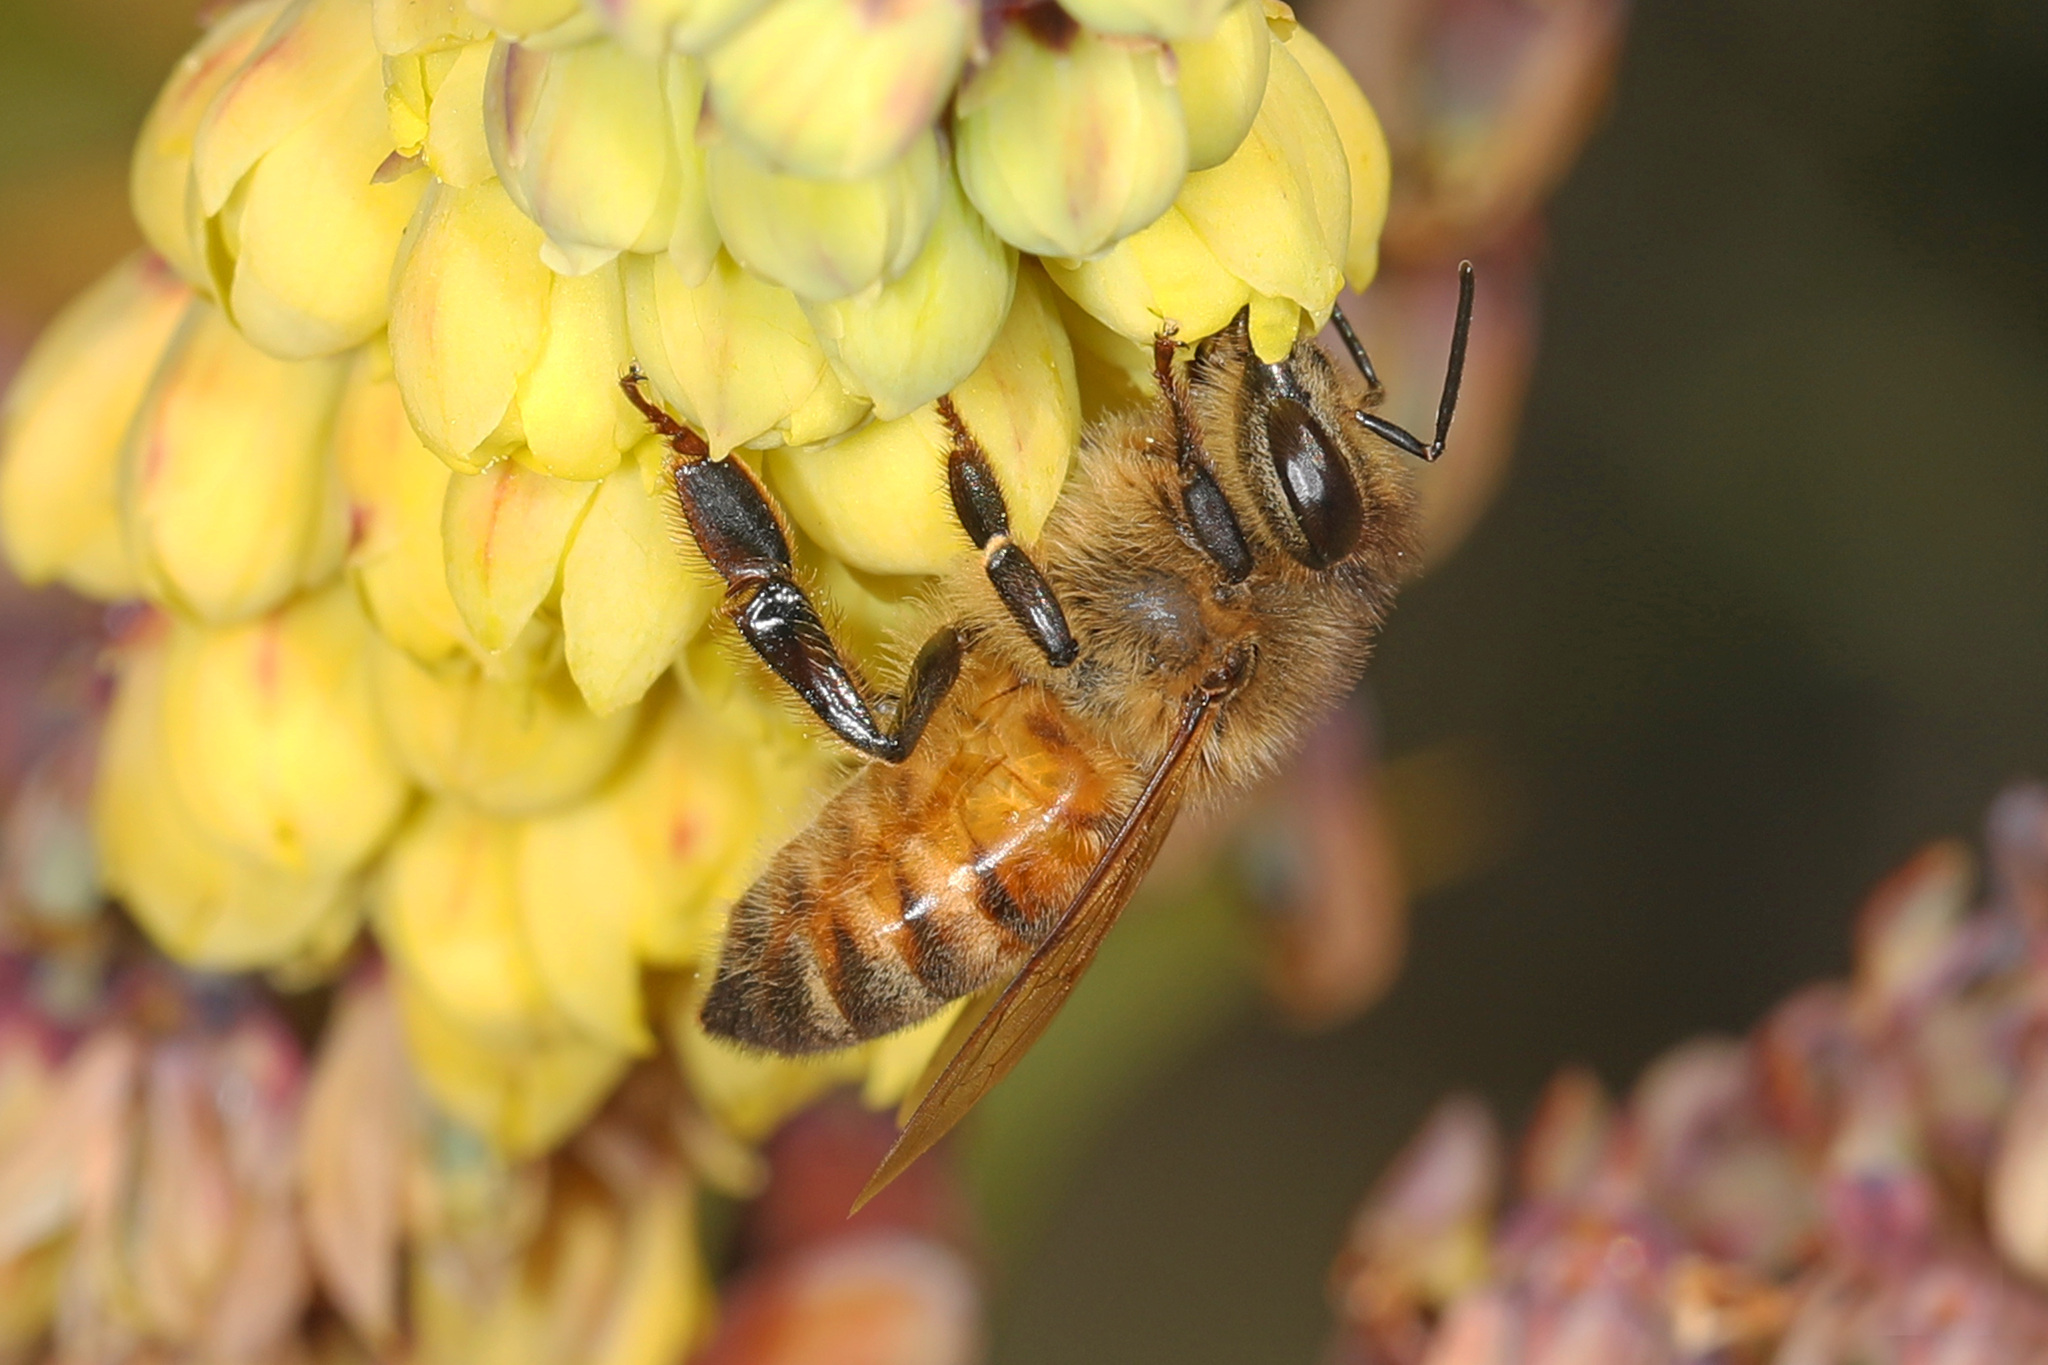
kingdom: Animalia
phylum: Arthropoda
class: Insecta
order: Hymenoptera
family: Apidae
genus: Apis
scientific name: Apis mellifera
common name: Honey bee
